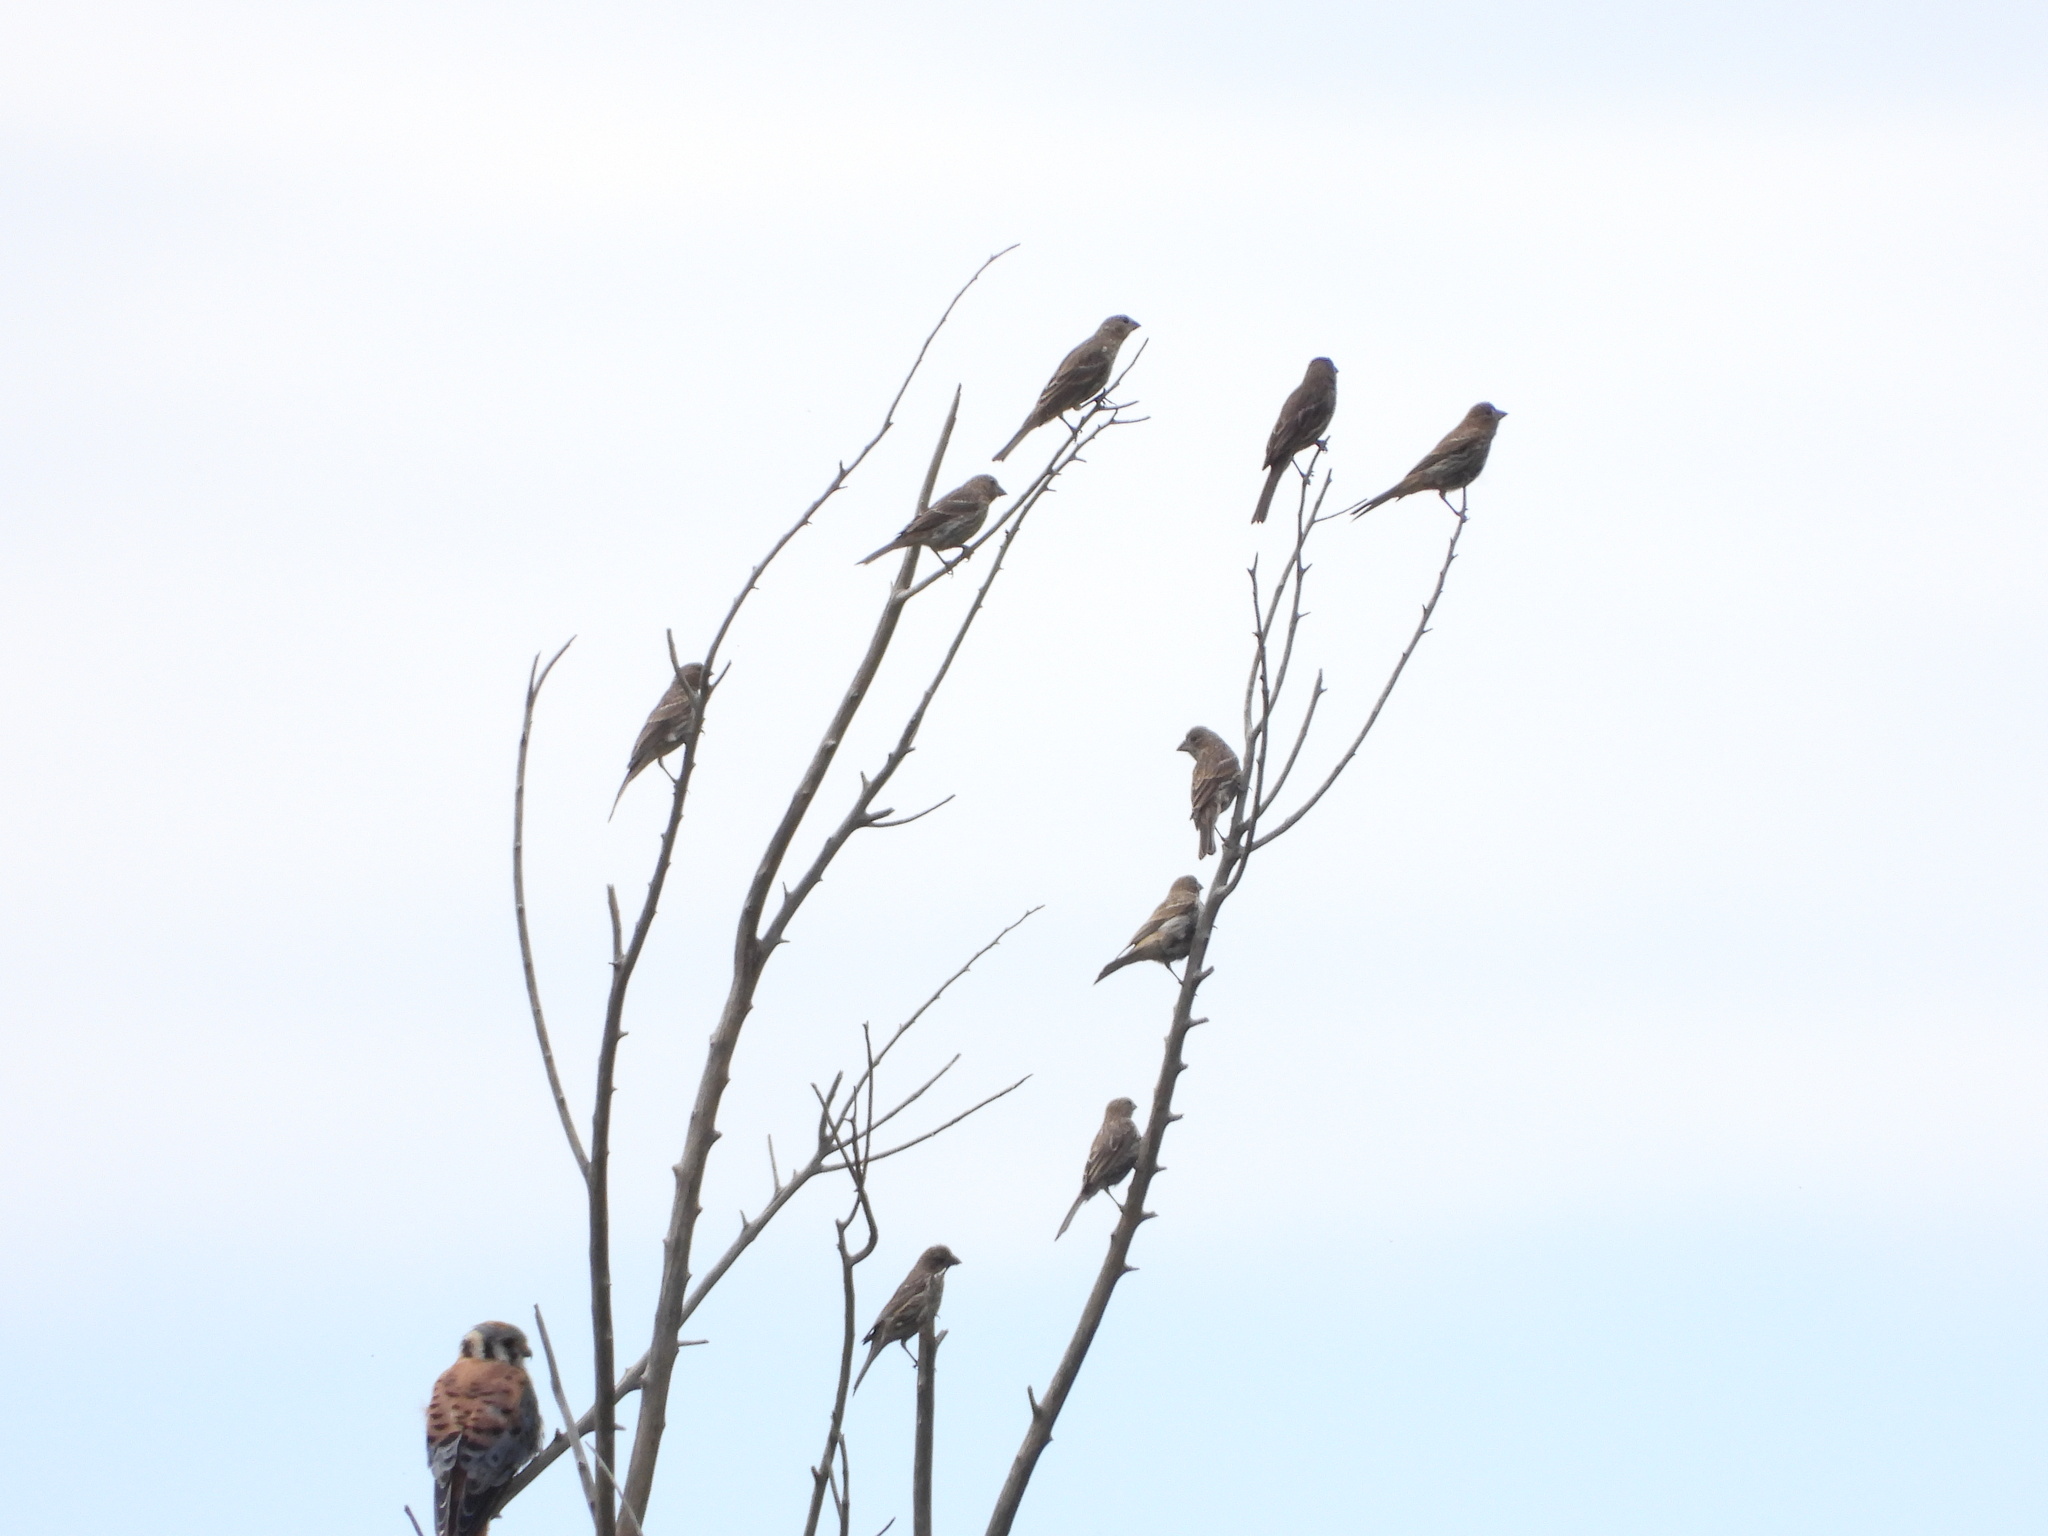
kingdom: Animalia
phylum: Chordata
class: Aves
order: Passeriformes
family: Fringillidae
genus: Haemorhous
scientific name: Haemorhous mexicanus
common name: House finch
